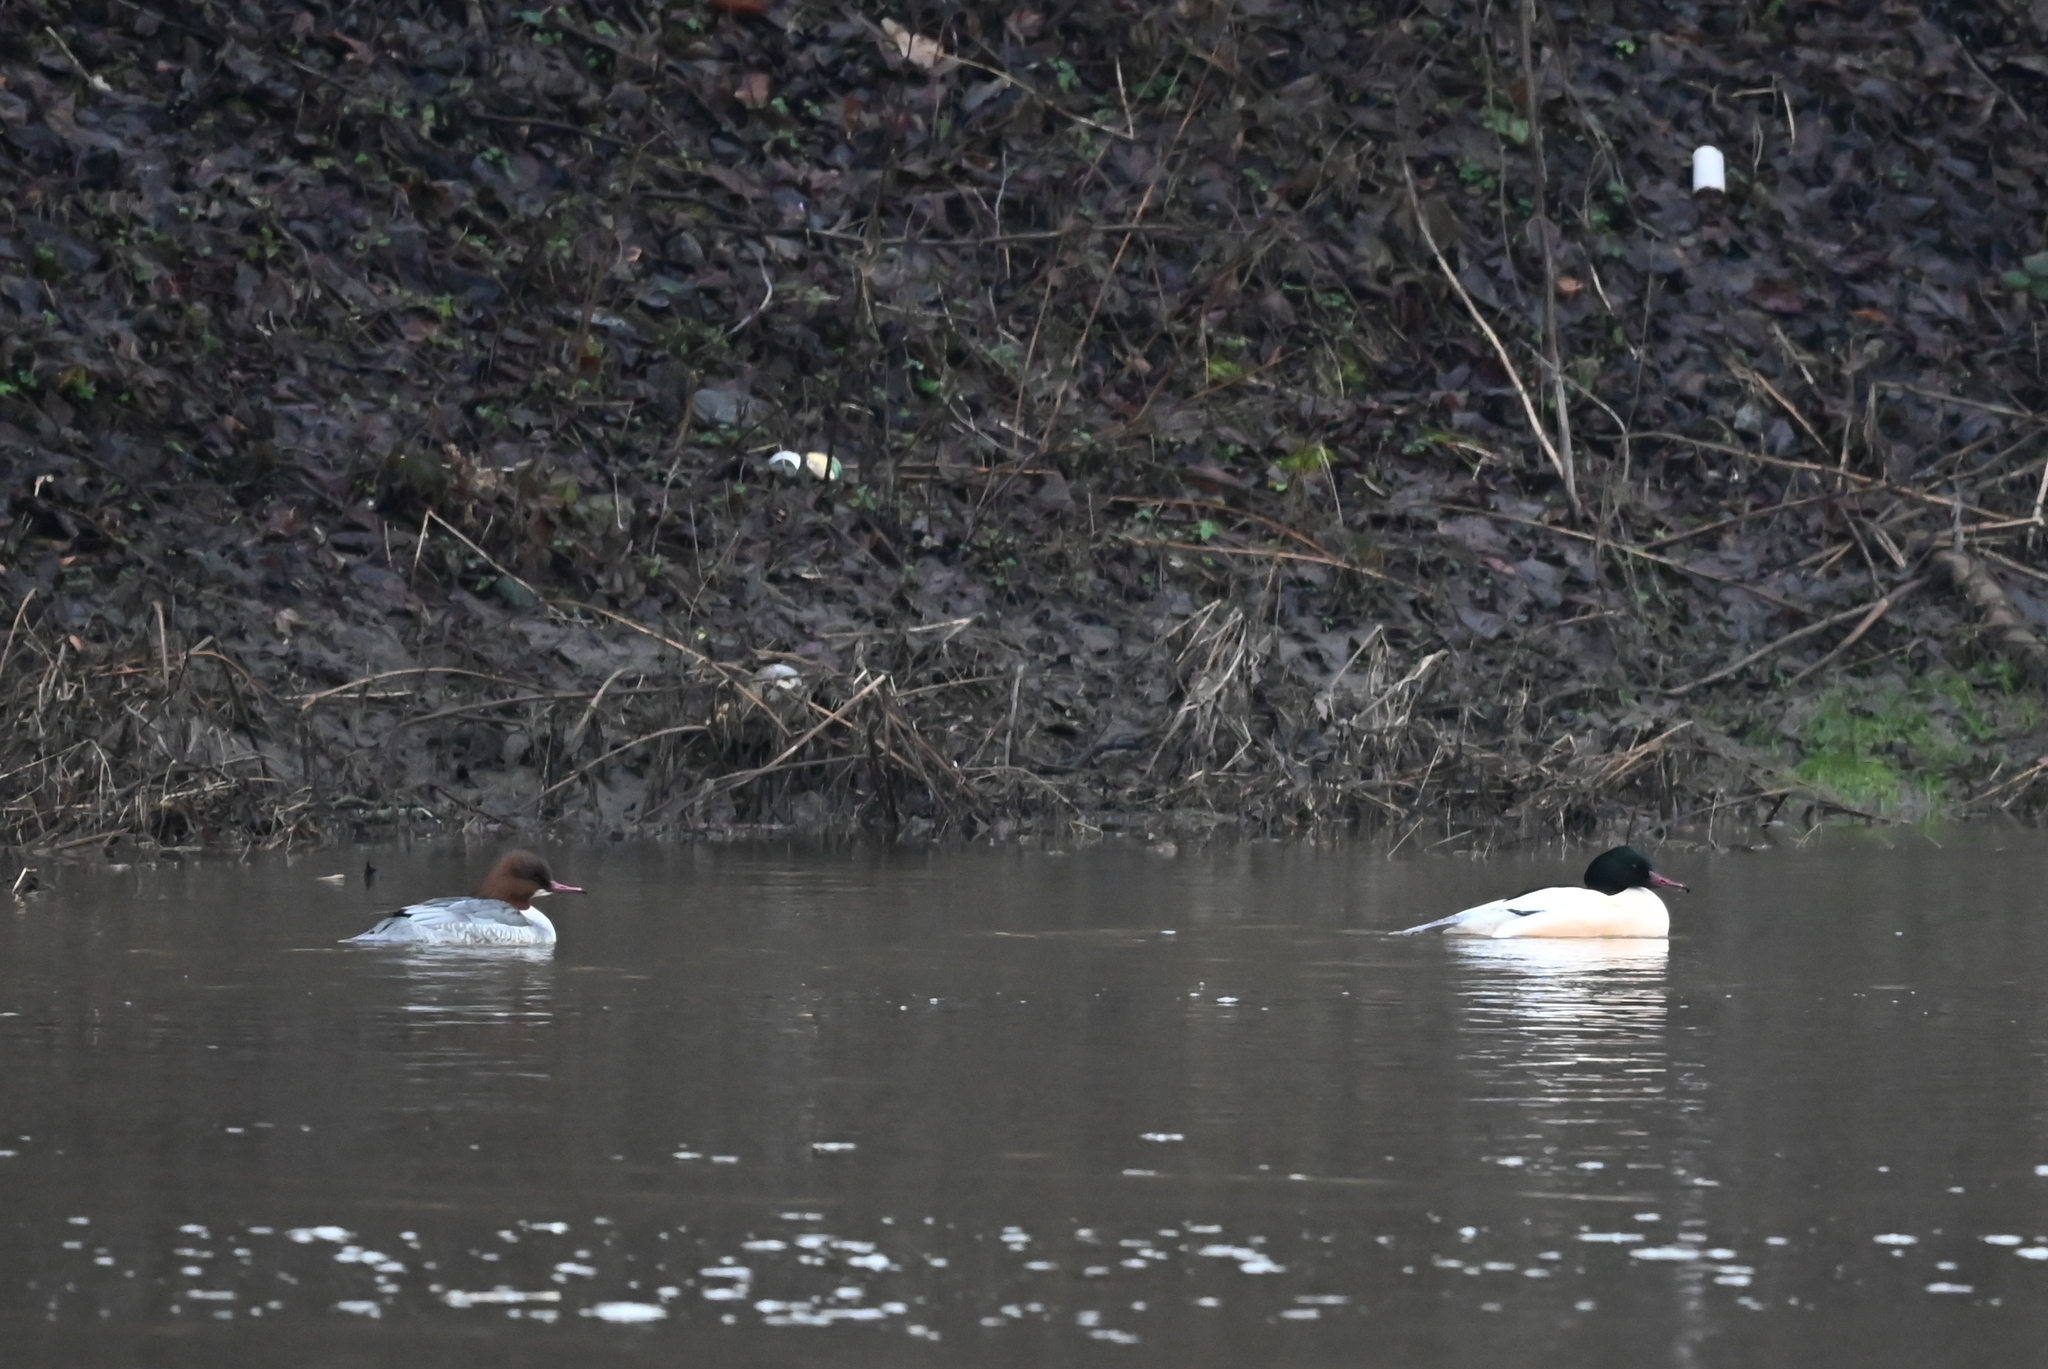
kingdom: Animalia
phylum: Chordata
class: Aves
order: Anseriformes
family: Anatidae
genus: Mergus
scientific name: Mergus merganser
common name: Common merganser
